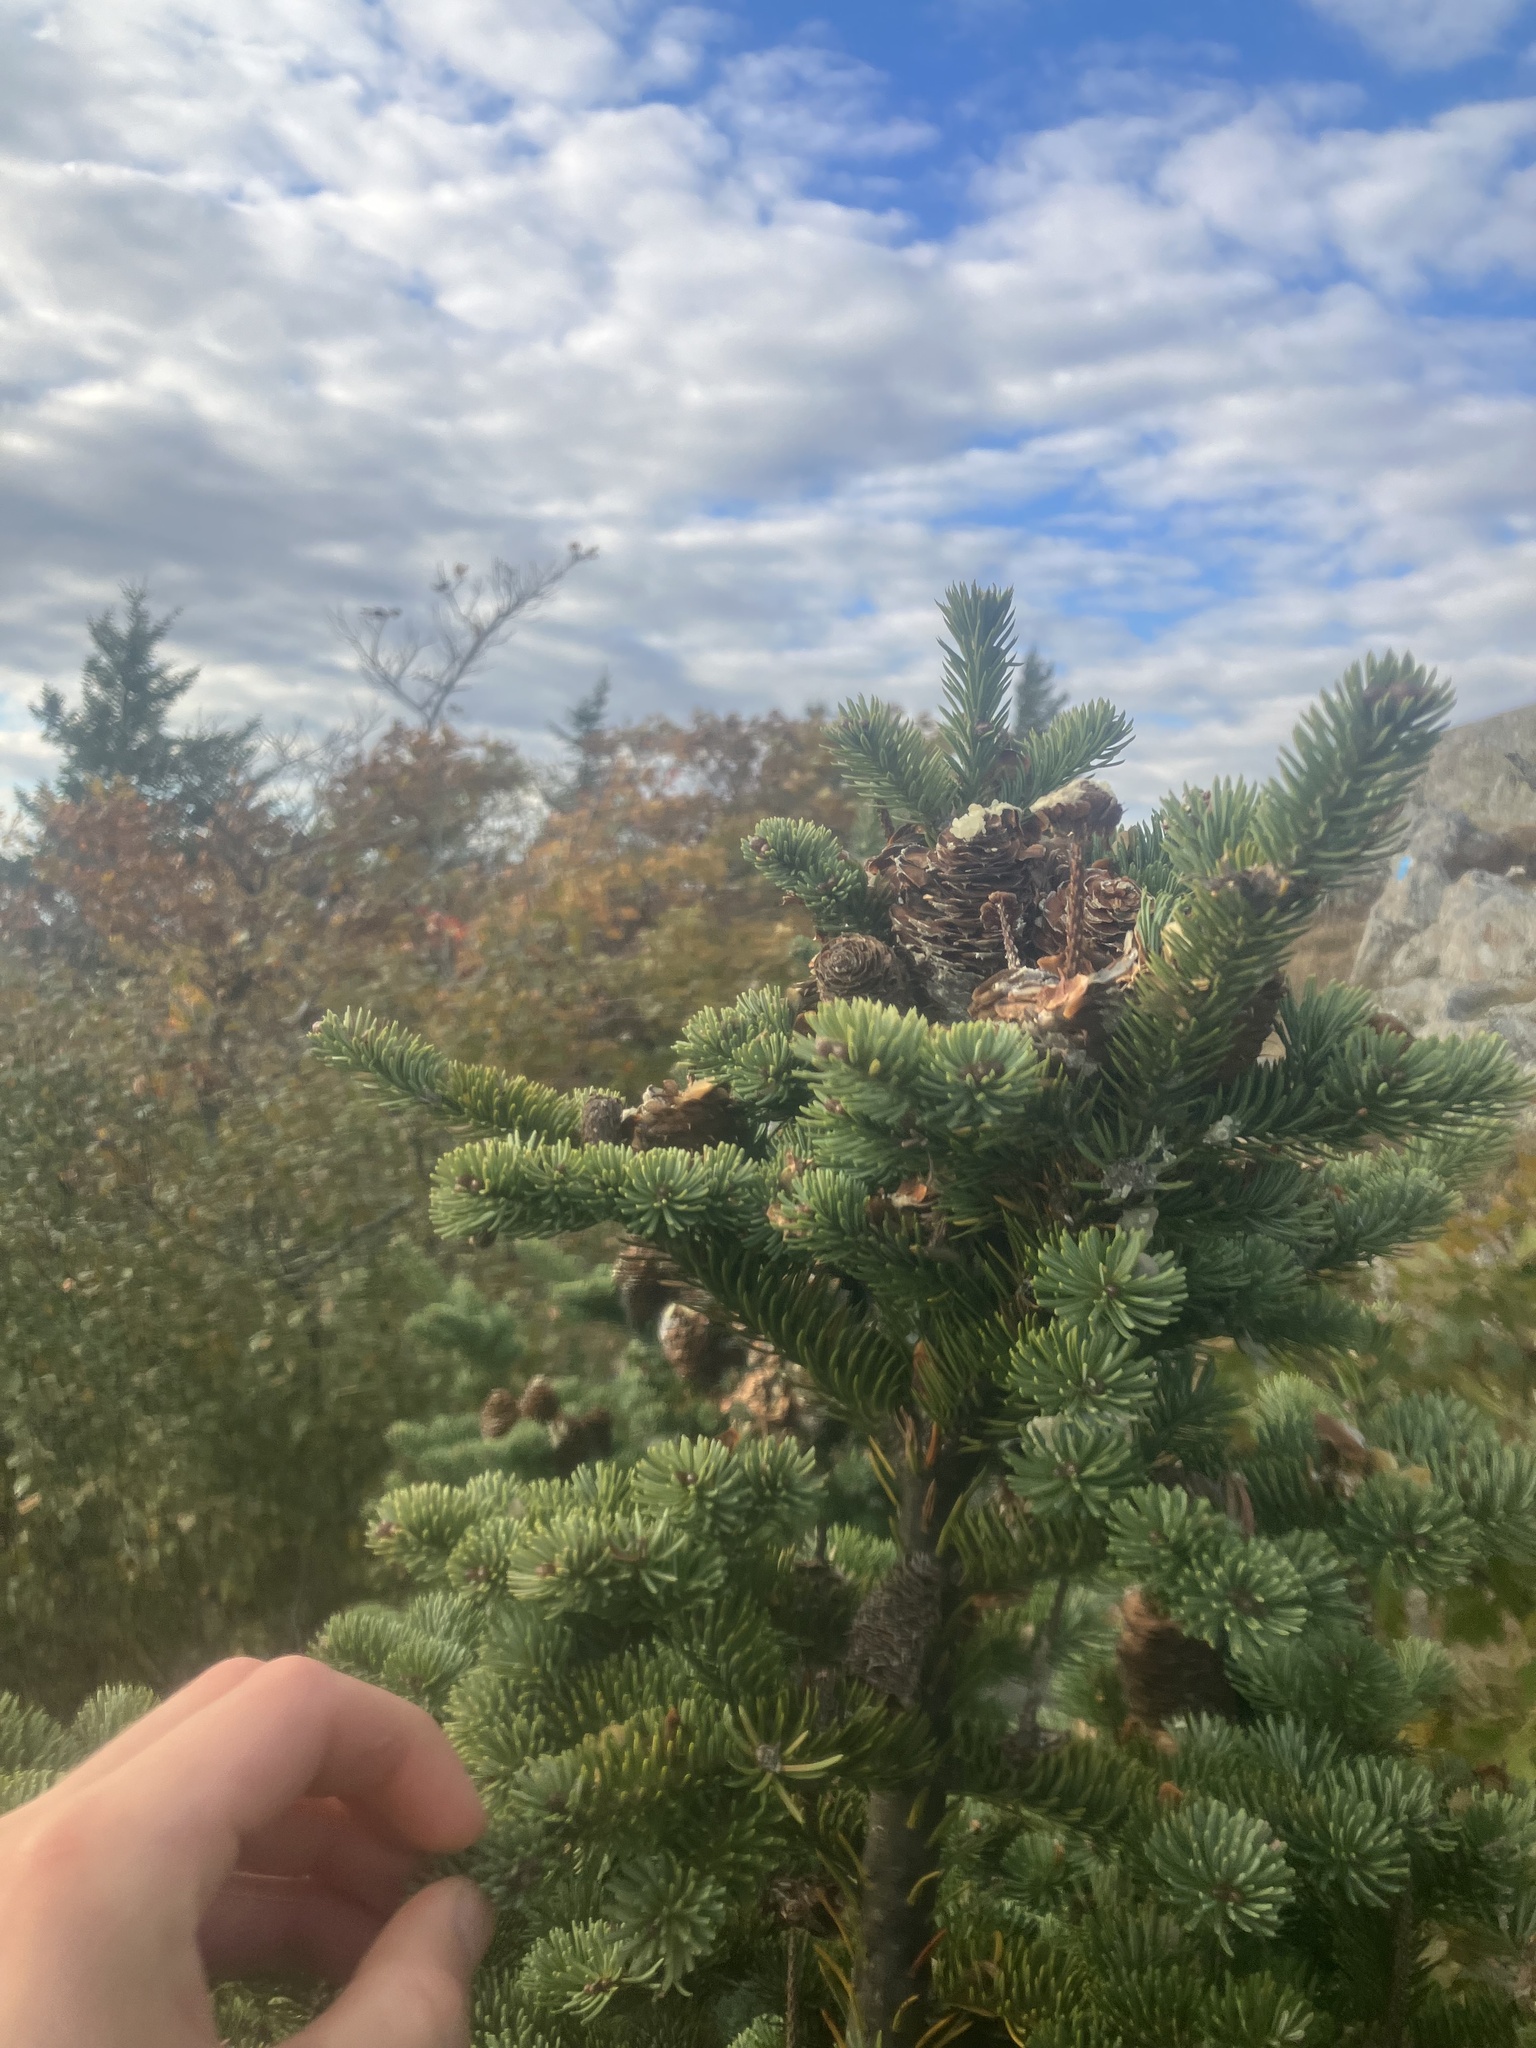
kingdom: Plantae
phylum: Tracheophyta
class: Pinopsida
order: Pinales
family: Pinaceae
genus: Abies
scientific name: Abies balsamea
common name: Balsam fir
